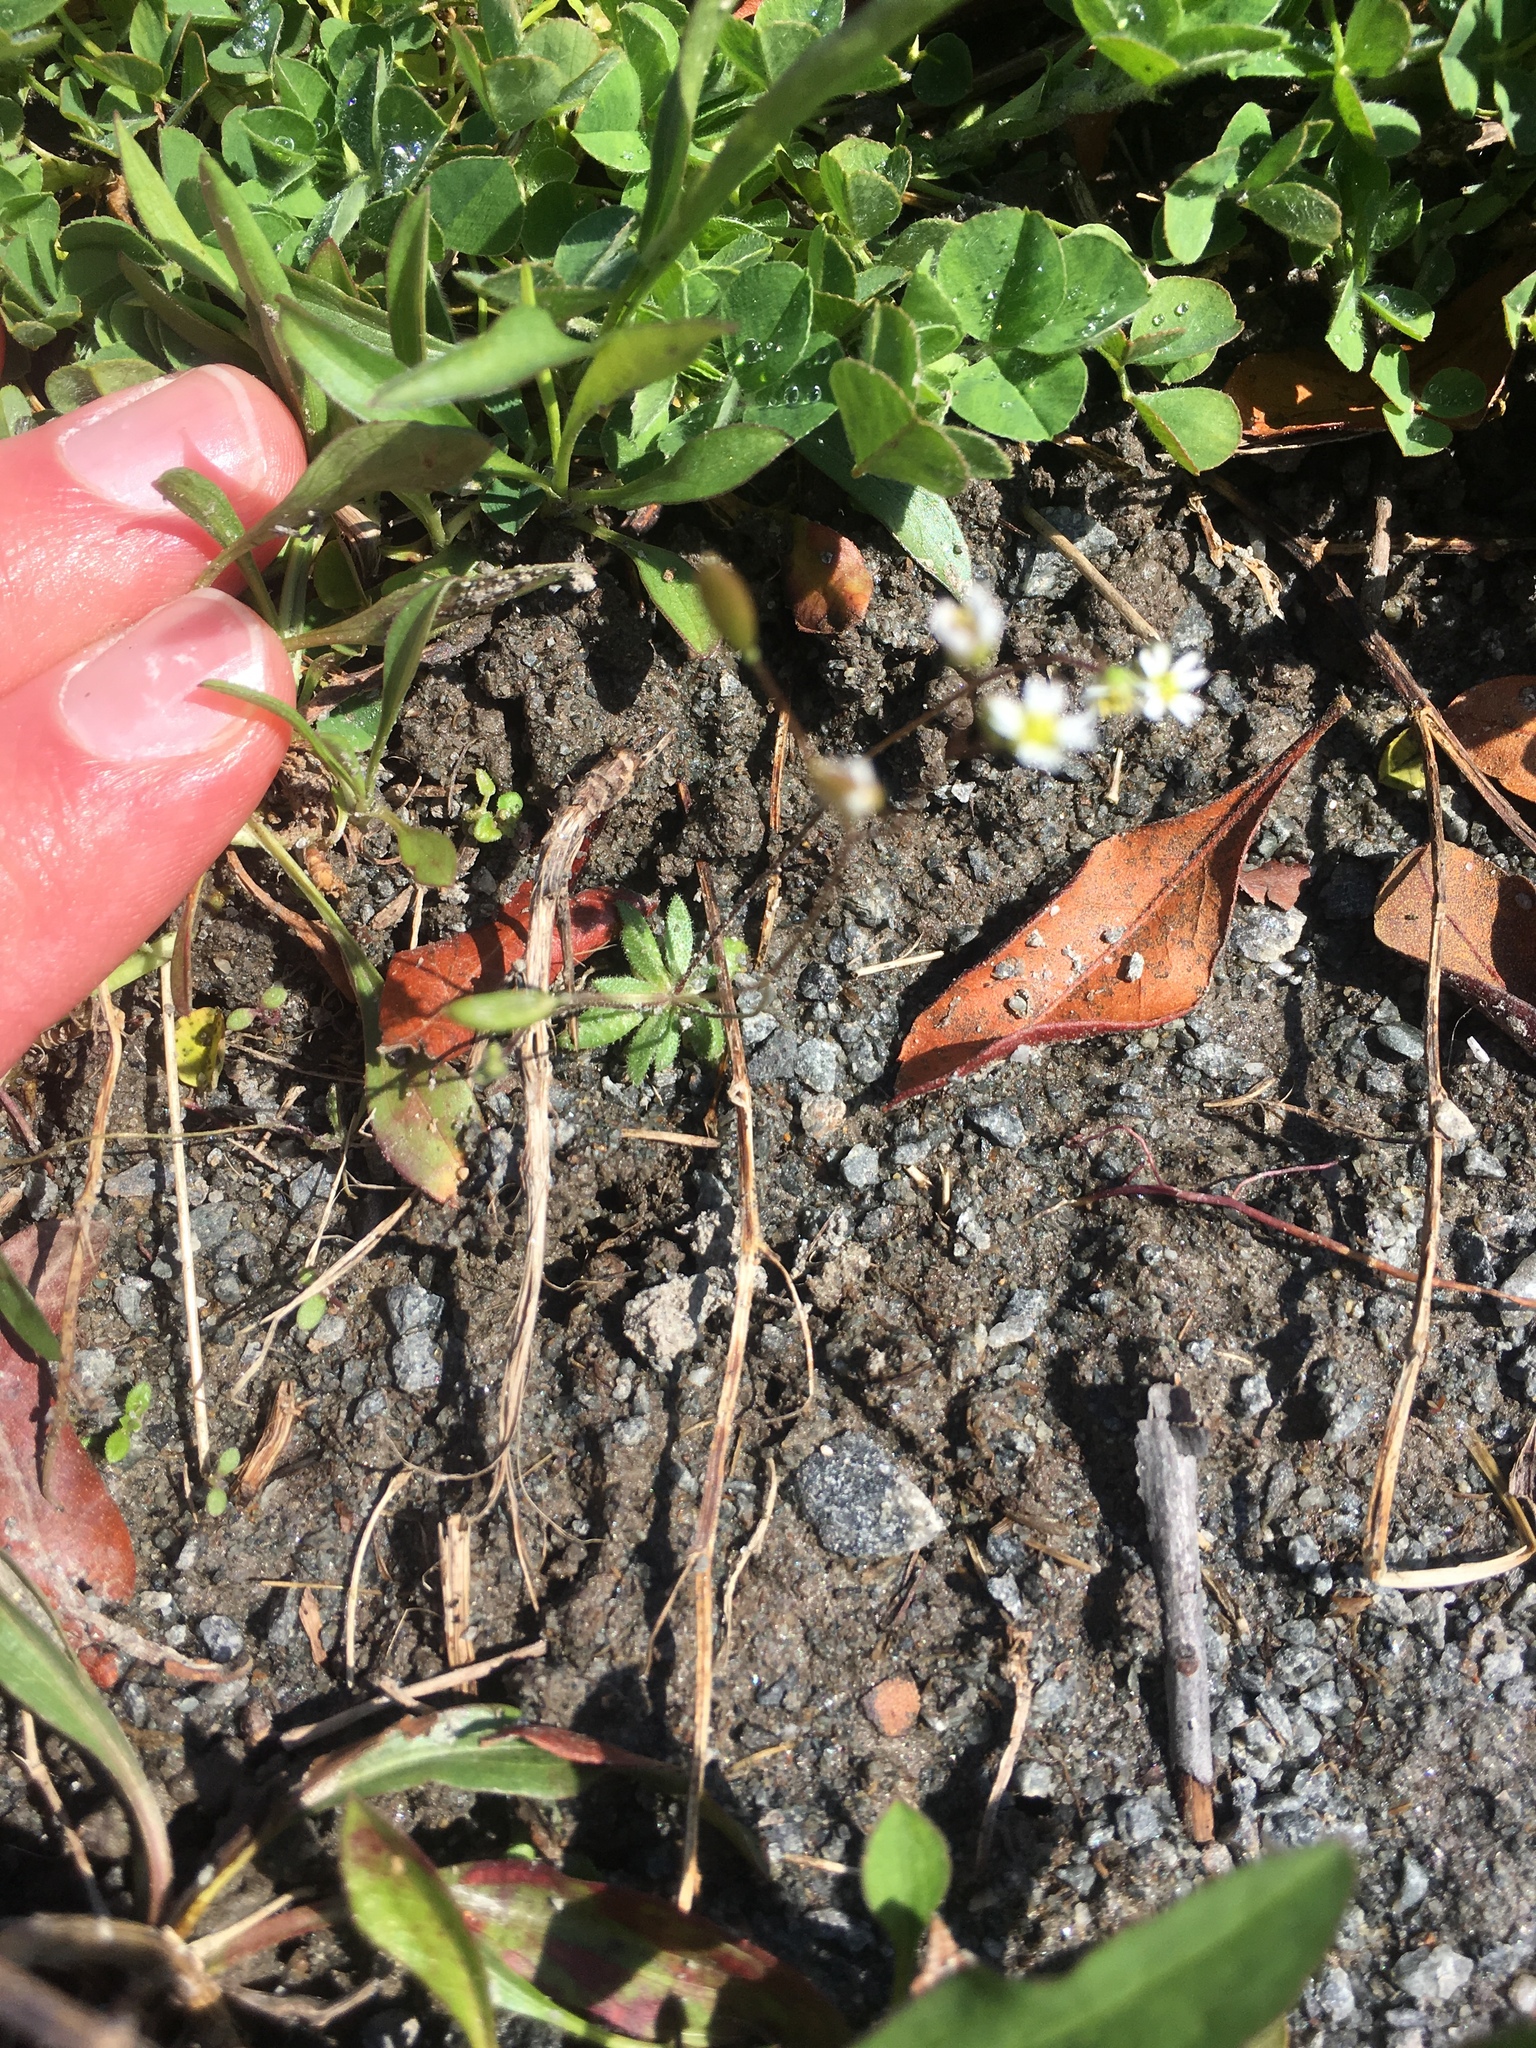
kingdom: Plantae
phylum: Tracheophyta
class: Magnoliopsida
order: Brassicales
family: Brassicaceae
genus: Draba
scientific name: Draba verna
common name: Spring draba
